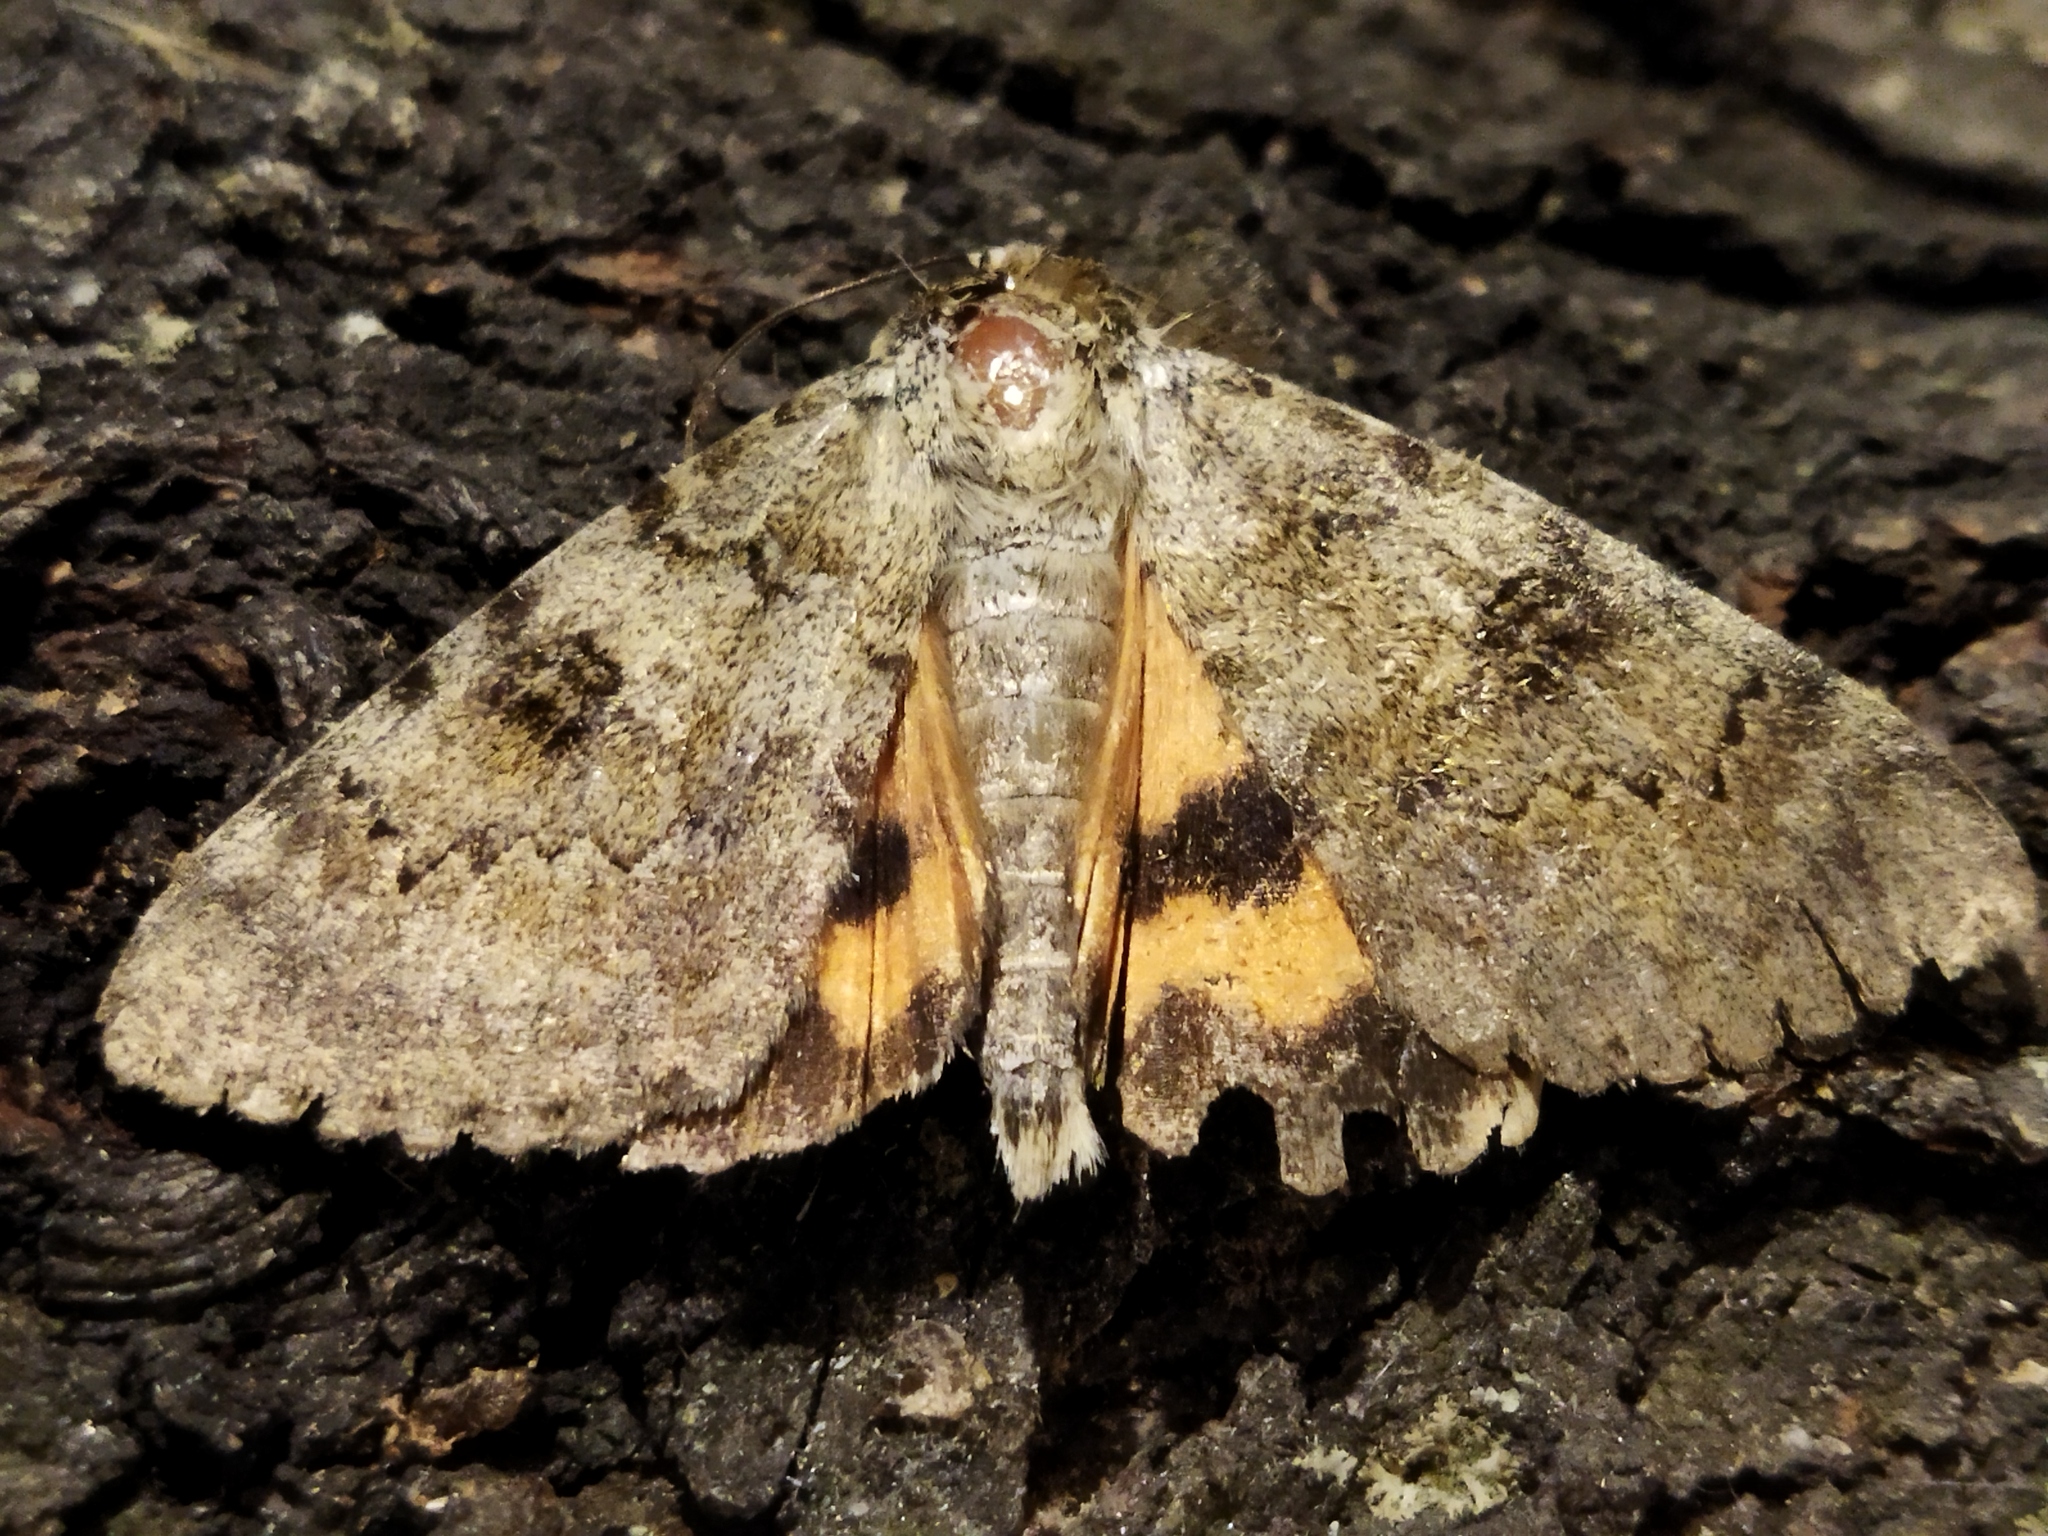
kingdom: Animalia
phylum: Arthropoda
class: Insecta
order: Lepidoptera
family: Erebidae
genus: Catocala
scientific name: Catocala puerpera
